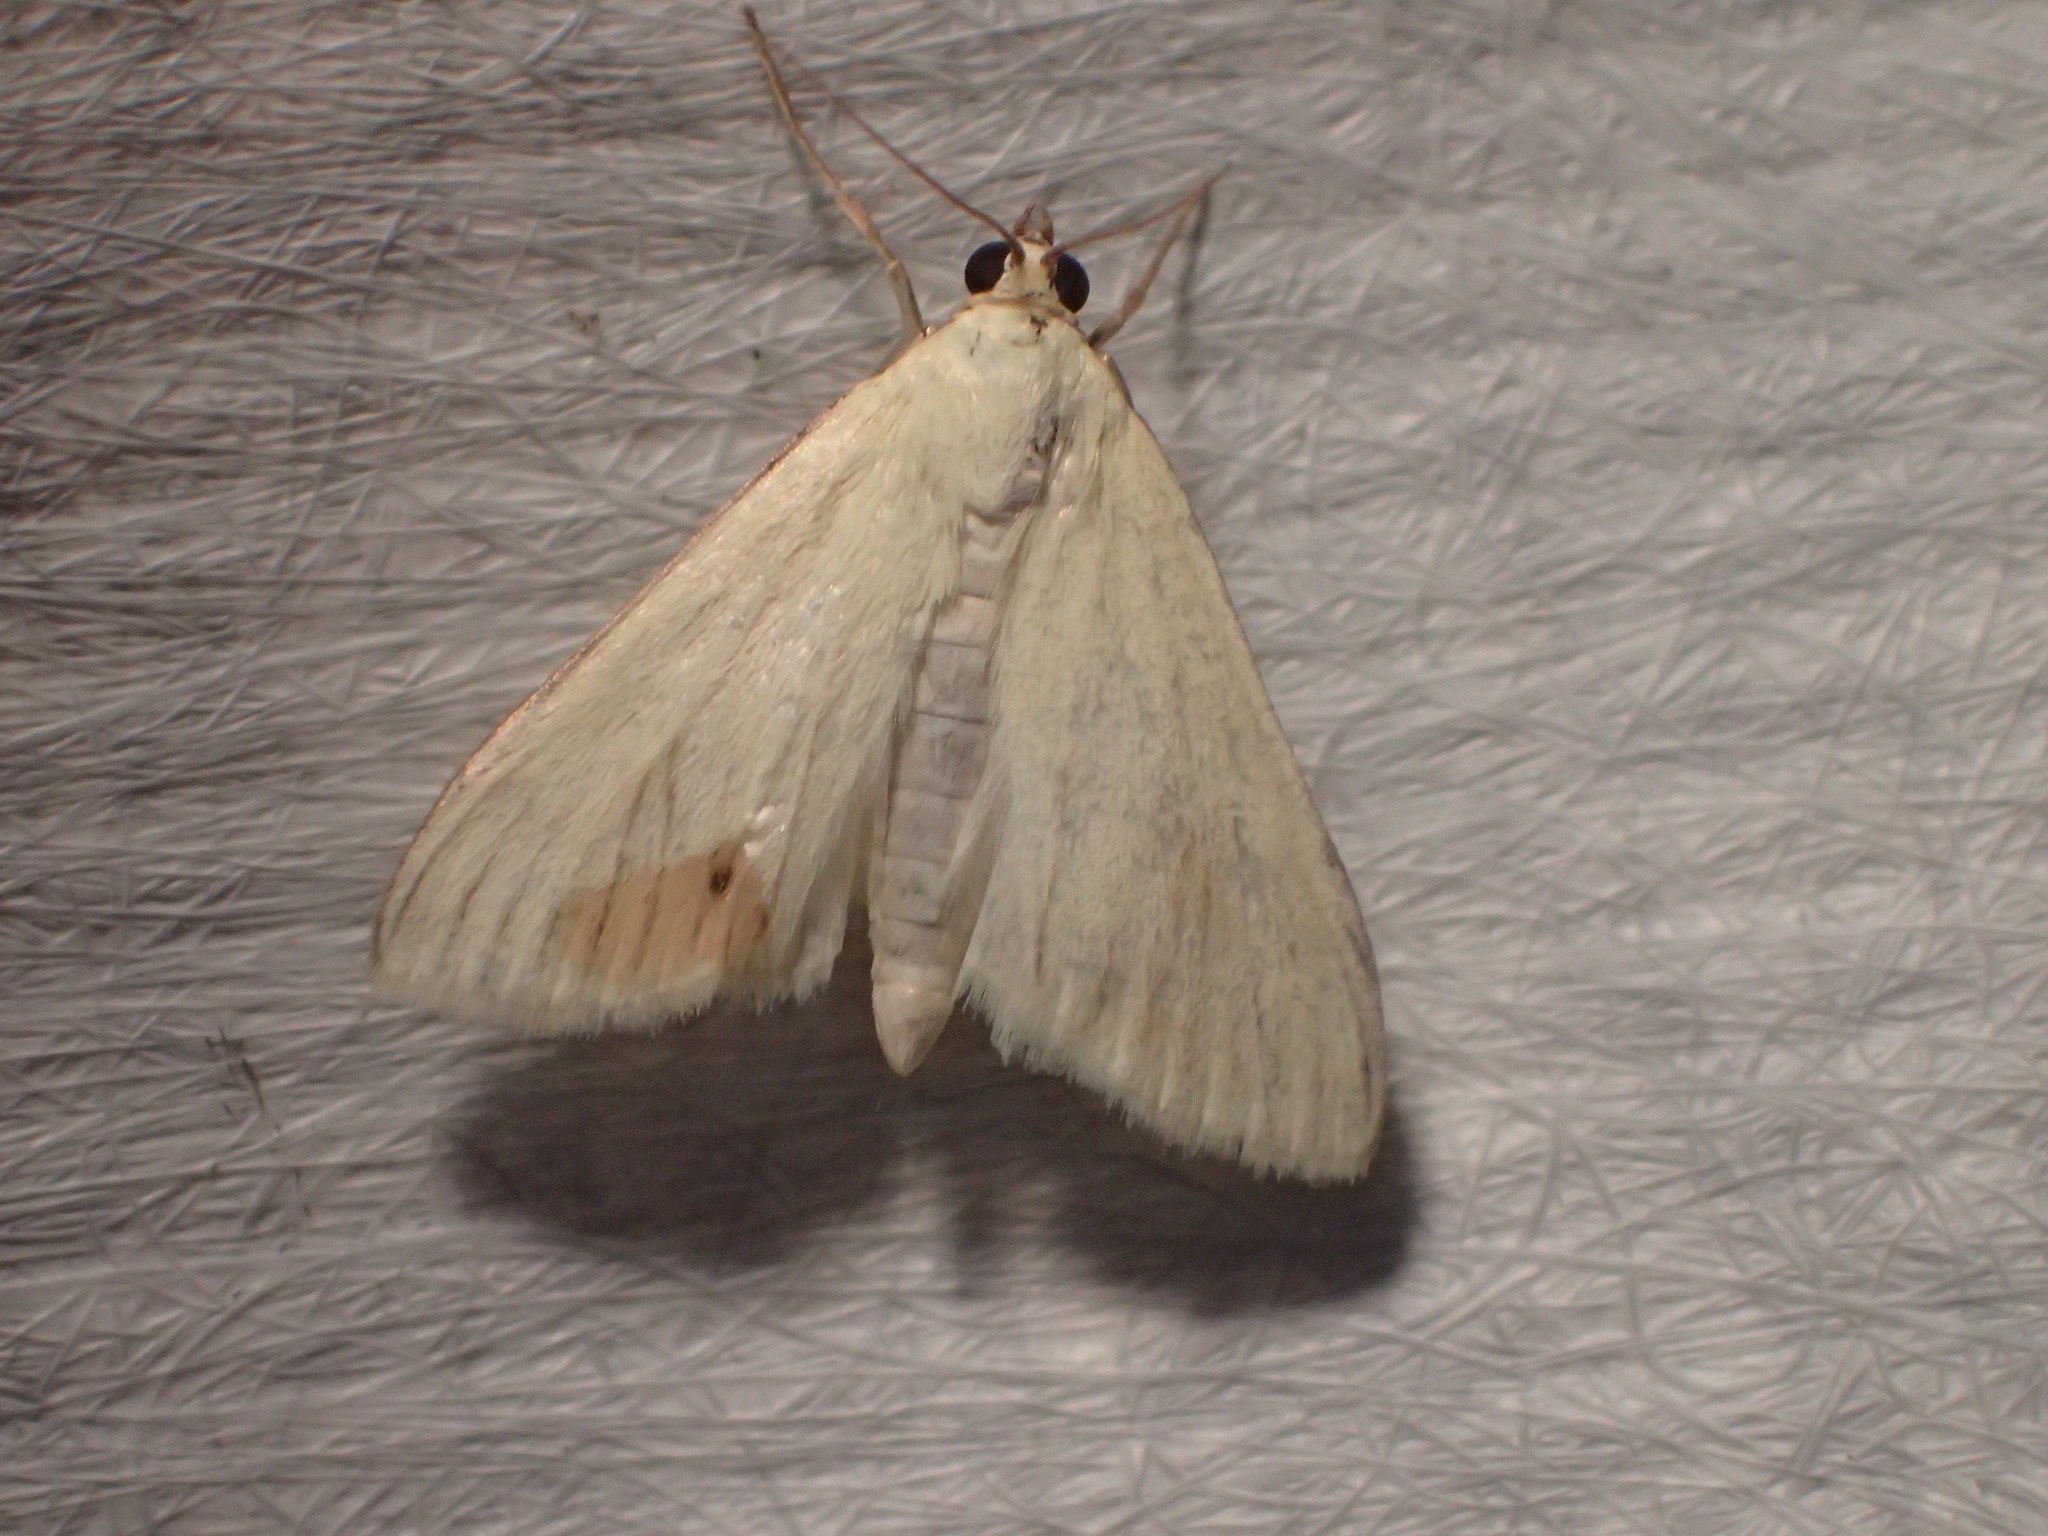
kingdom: Animalia
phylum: Arthropoda
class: Insecta
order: Lepidoptera
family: Crambidae
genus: Sitochroa
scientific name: Sitochroa palealis
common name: Greenish-yellow sitochroa moth
